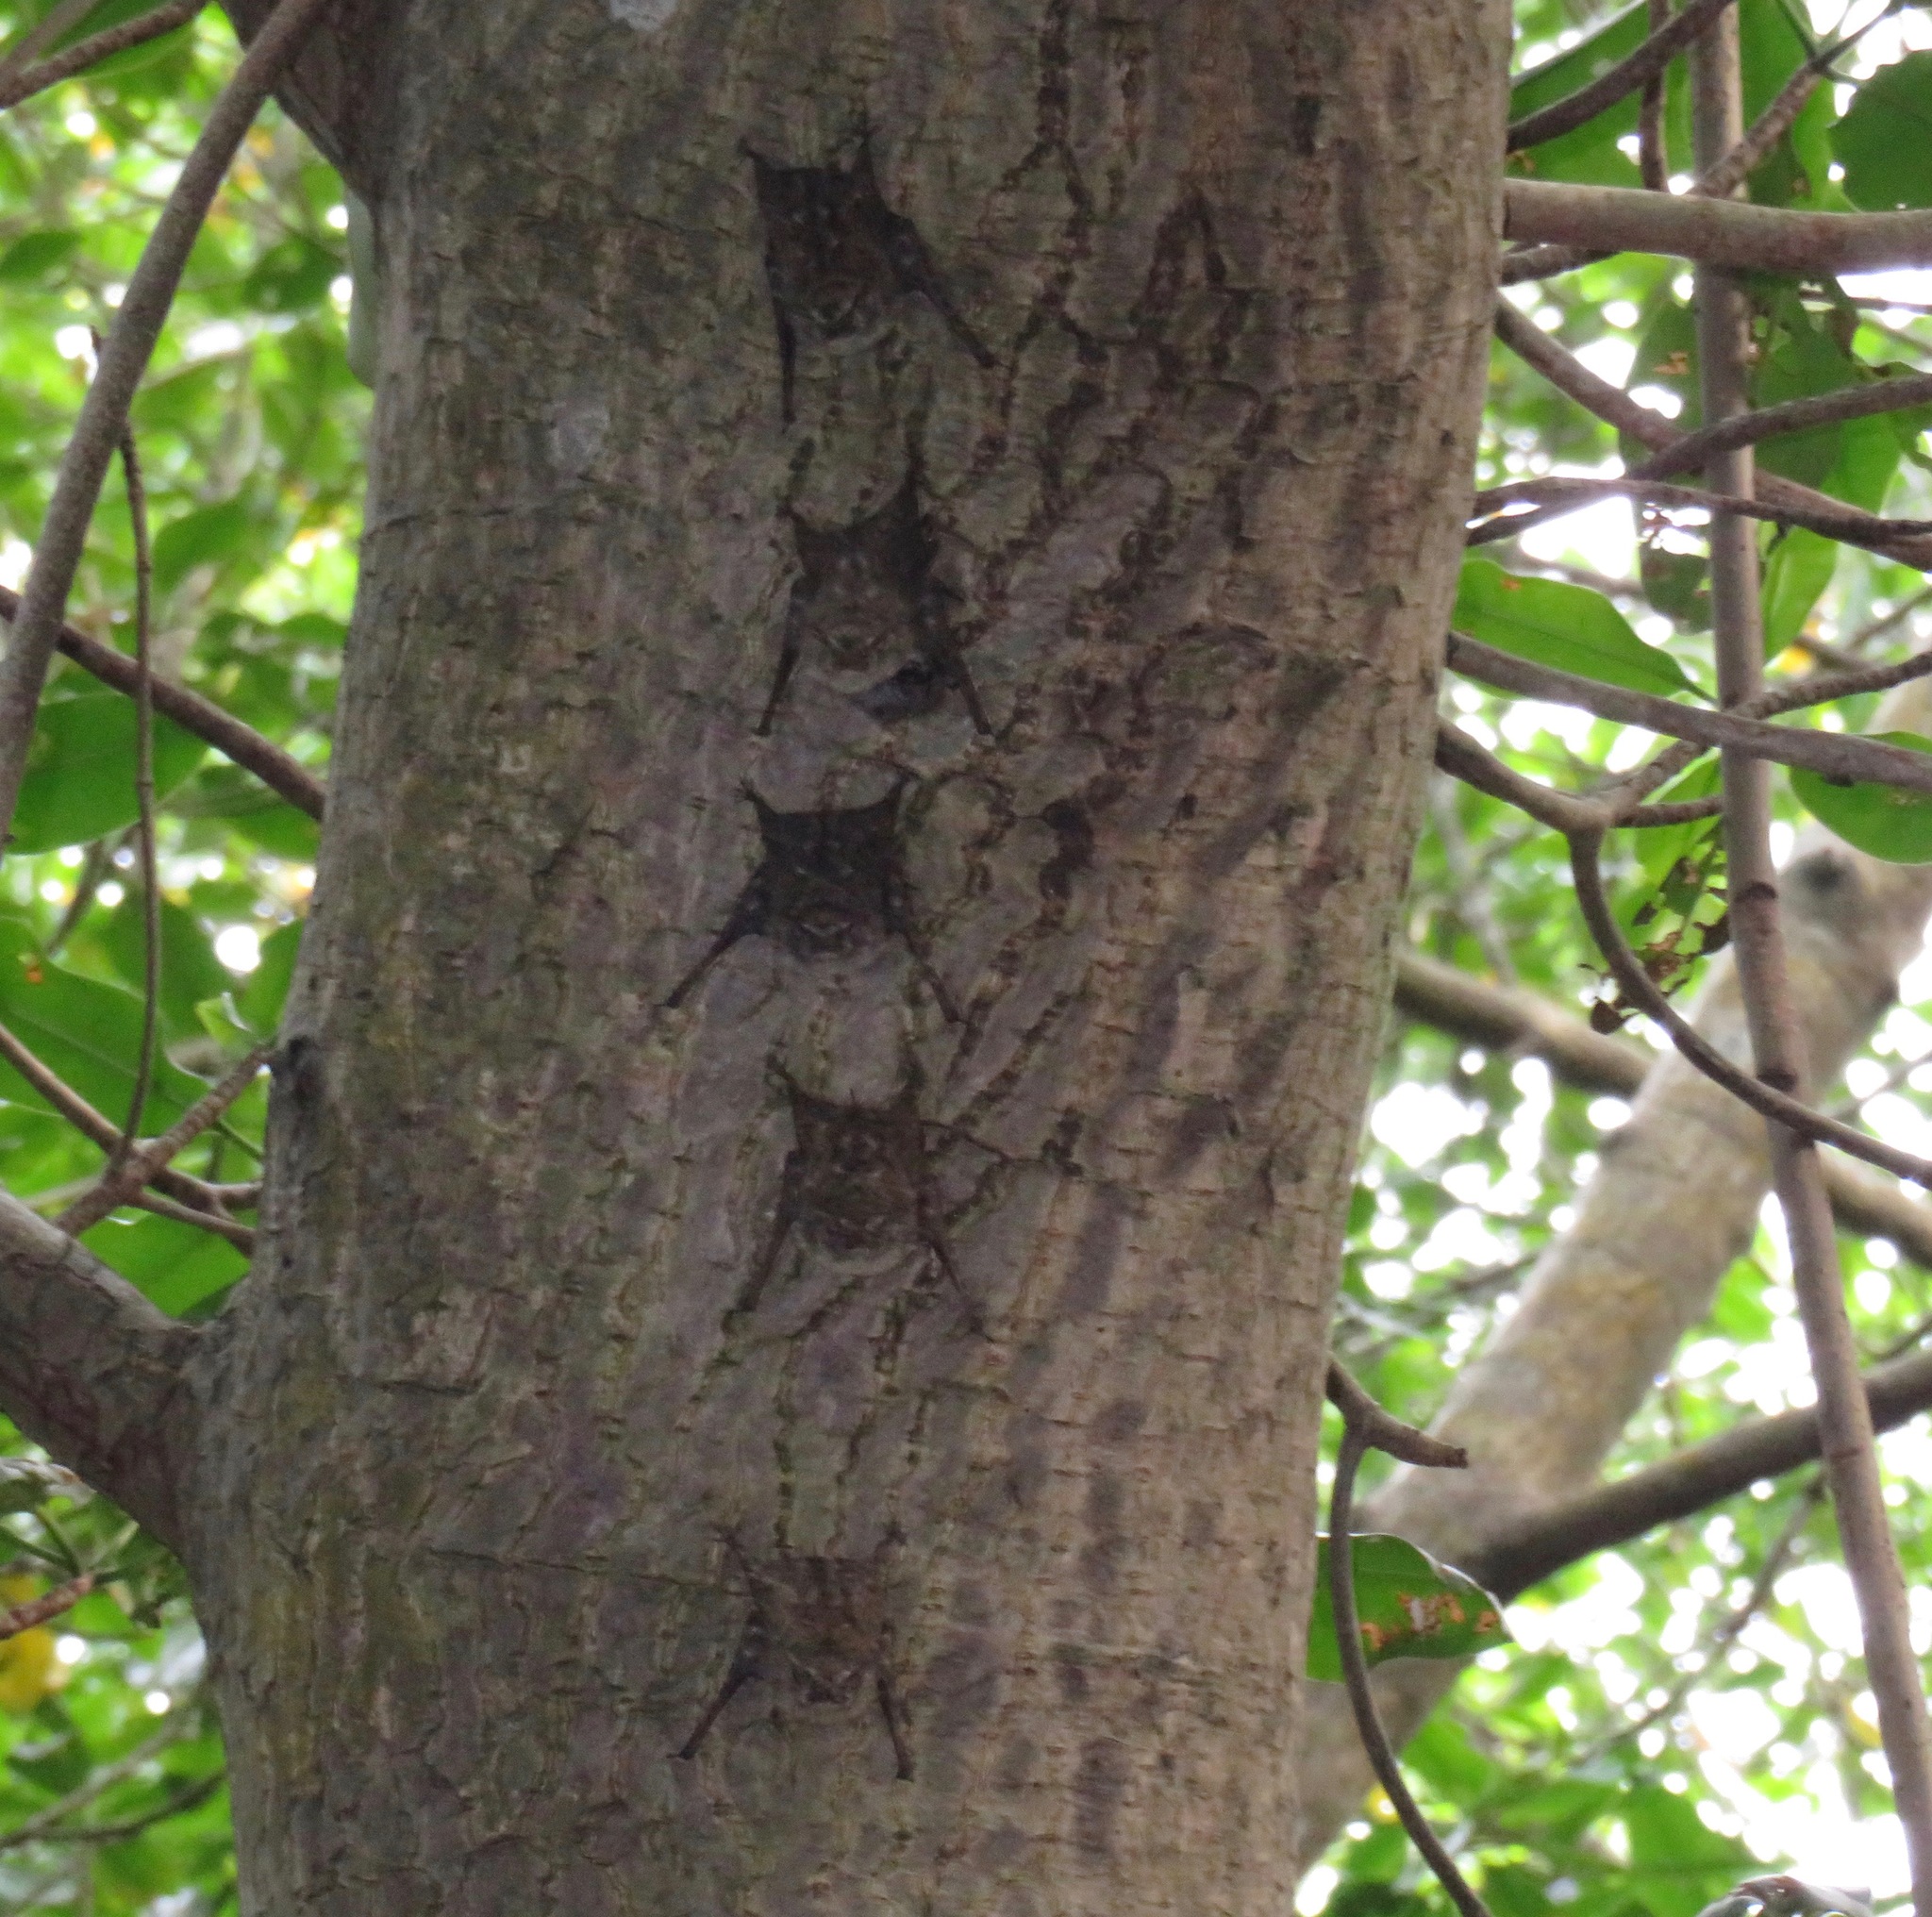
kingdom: Animalia
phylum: Chordata
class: Mammalia
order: Chiroptera
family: Emballonuridae
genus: Rhynchonycteris
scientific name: Rhynchonycteris naso
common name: Proboscis bat
